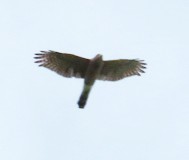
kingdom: Animalia
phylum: Chordata
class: Aves
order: Accipitriformes
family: Accipitridae
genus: Accipiter
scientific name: Accipiter cooperii
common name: Cooper's hawk
